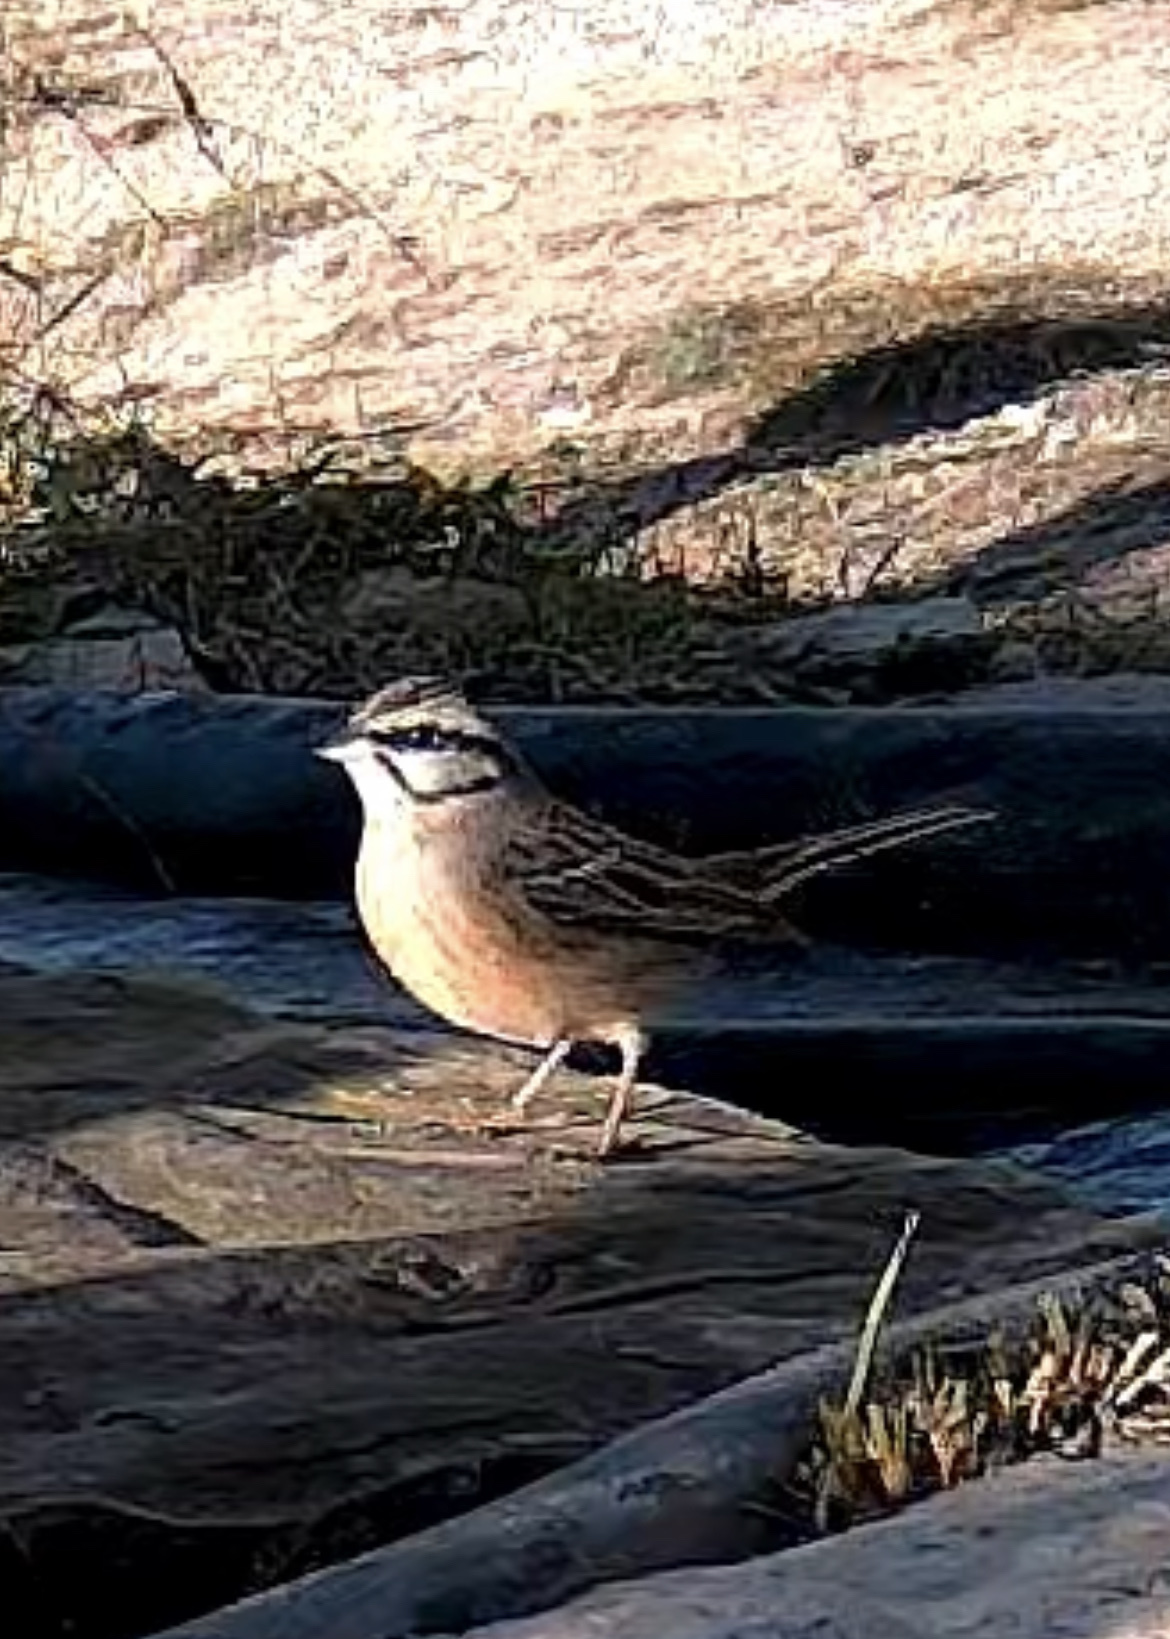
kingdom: Animalia
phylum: Chordata
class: Aves
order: Passeriformes
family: Emberizidae
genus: Emberiza
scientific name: Emberiza cia
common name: Rock bunting
